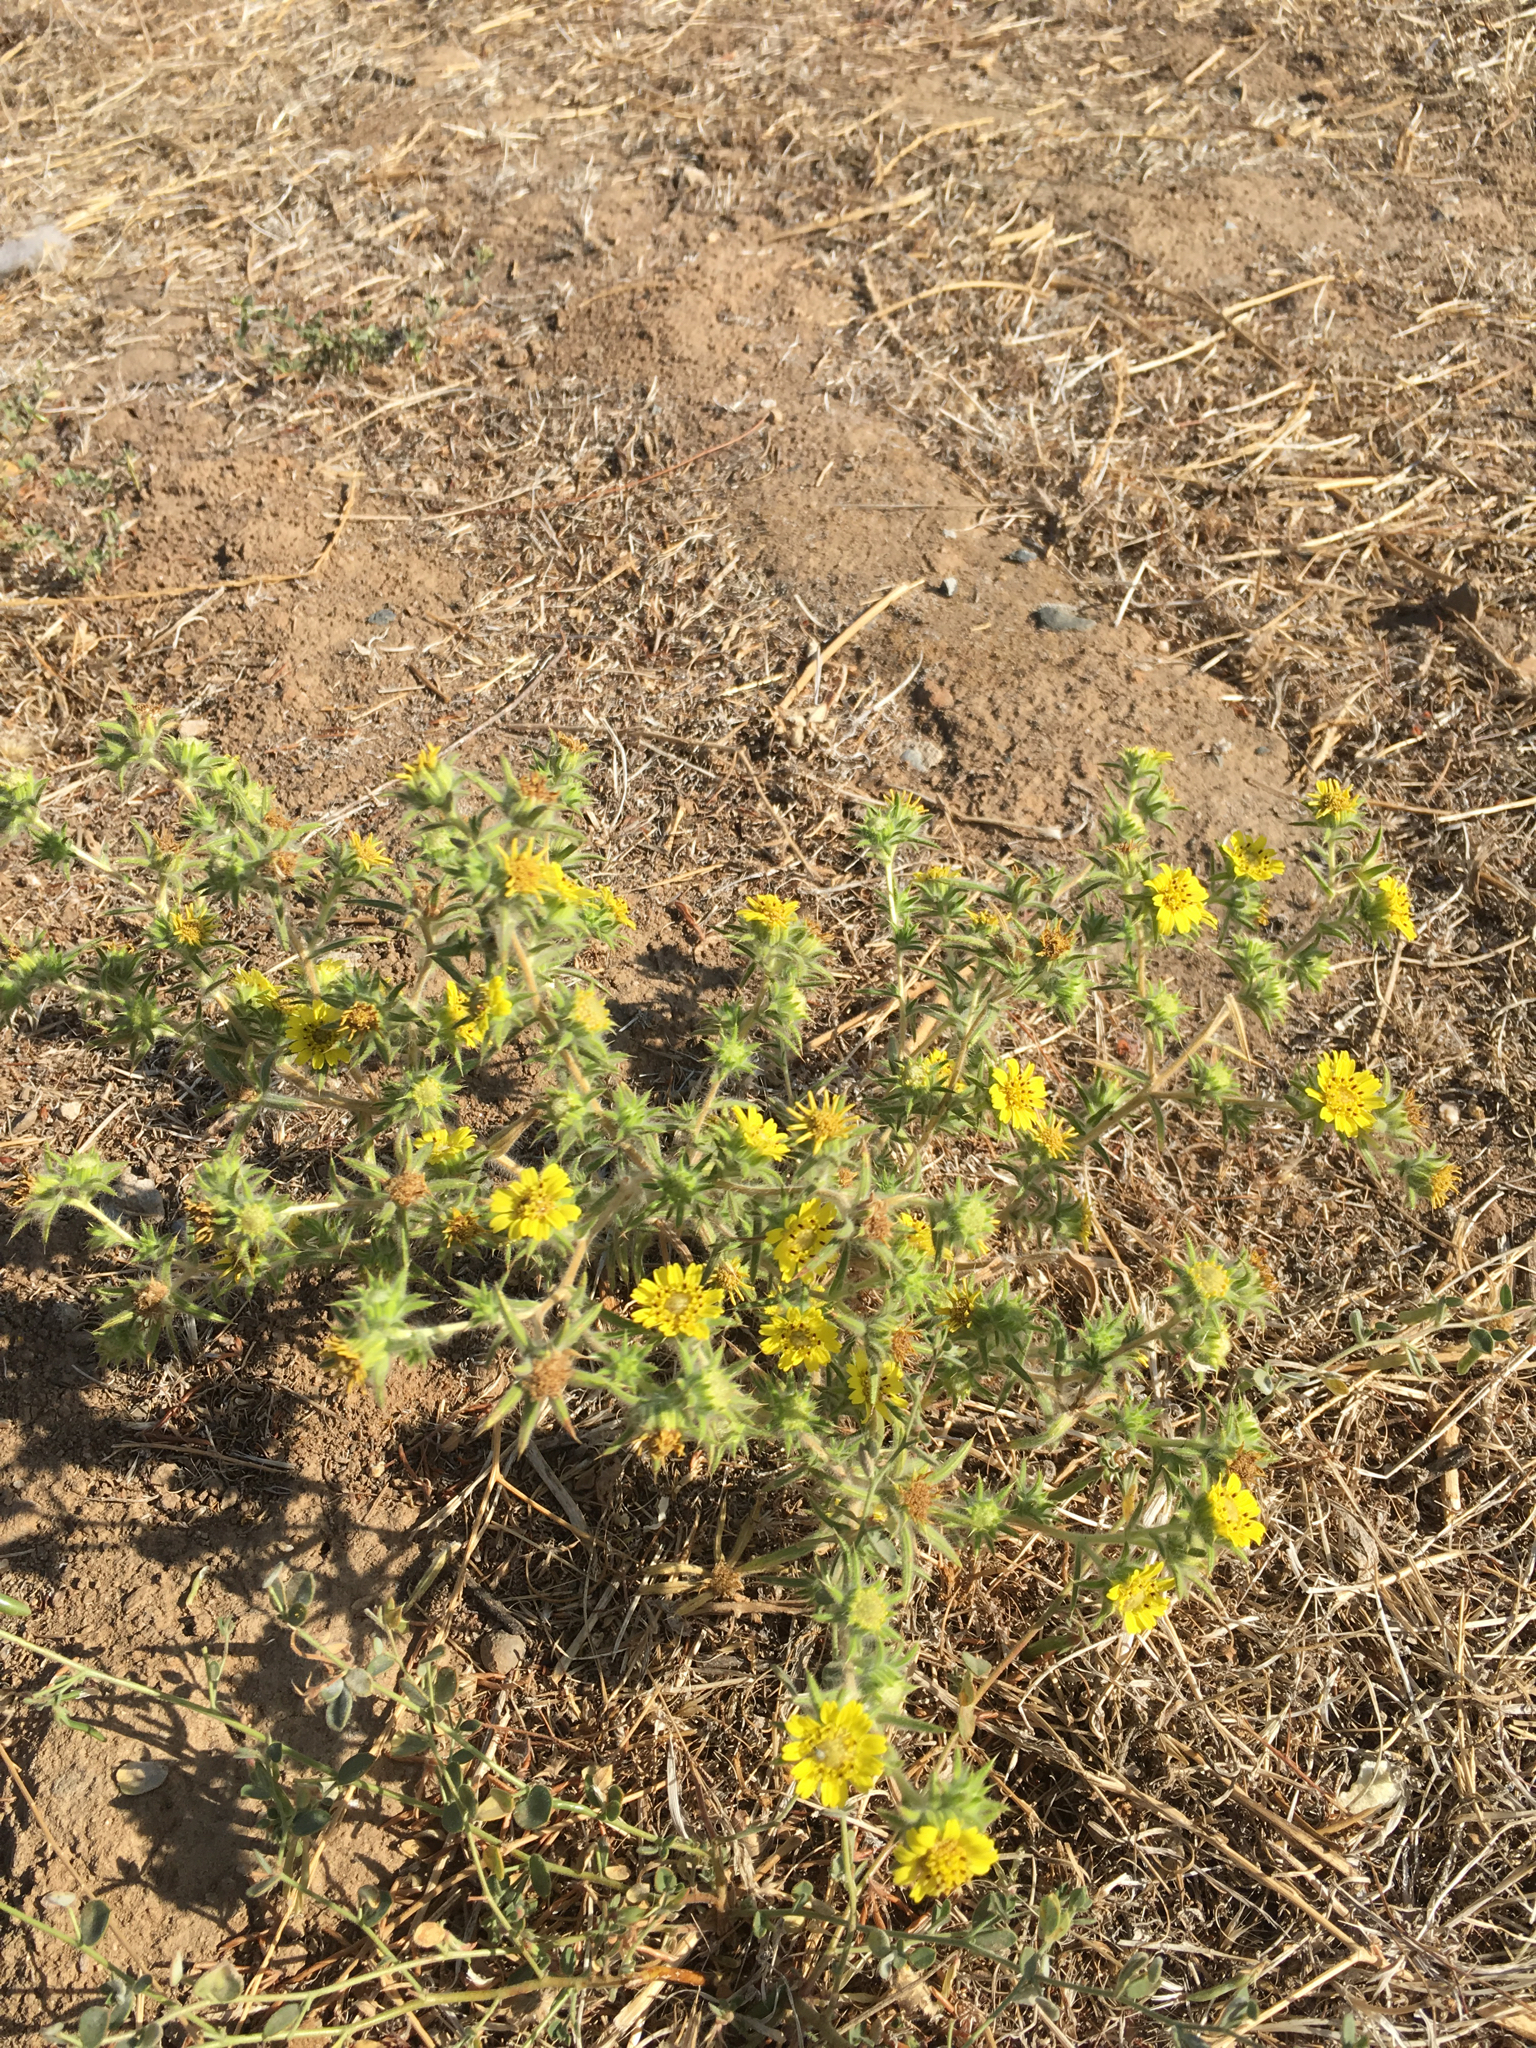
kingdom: Plantae
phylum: Tracheophyta
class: Magnoliopsida
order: Asterales
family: Asteraceae
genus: Centromadia
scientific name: Centromadia fitchii
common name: Fitch's spikeweed
